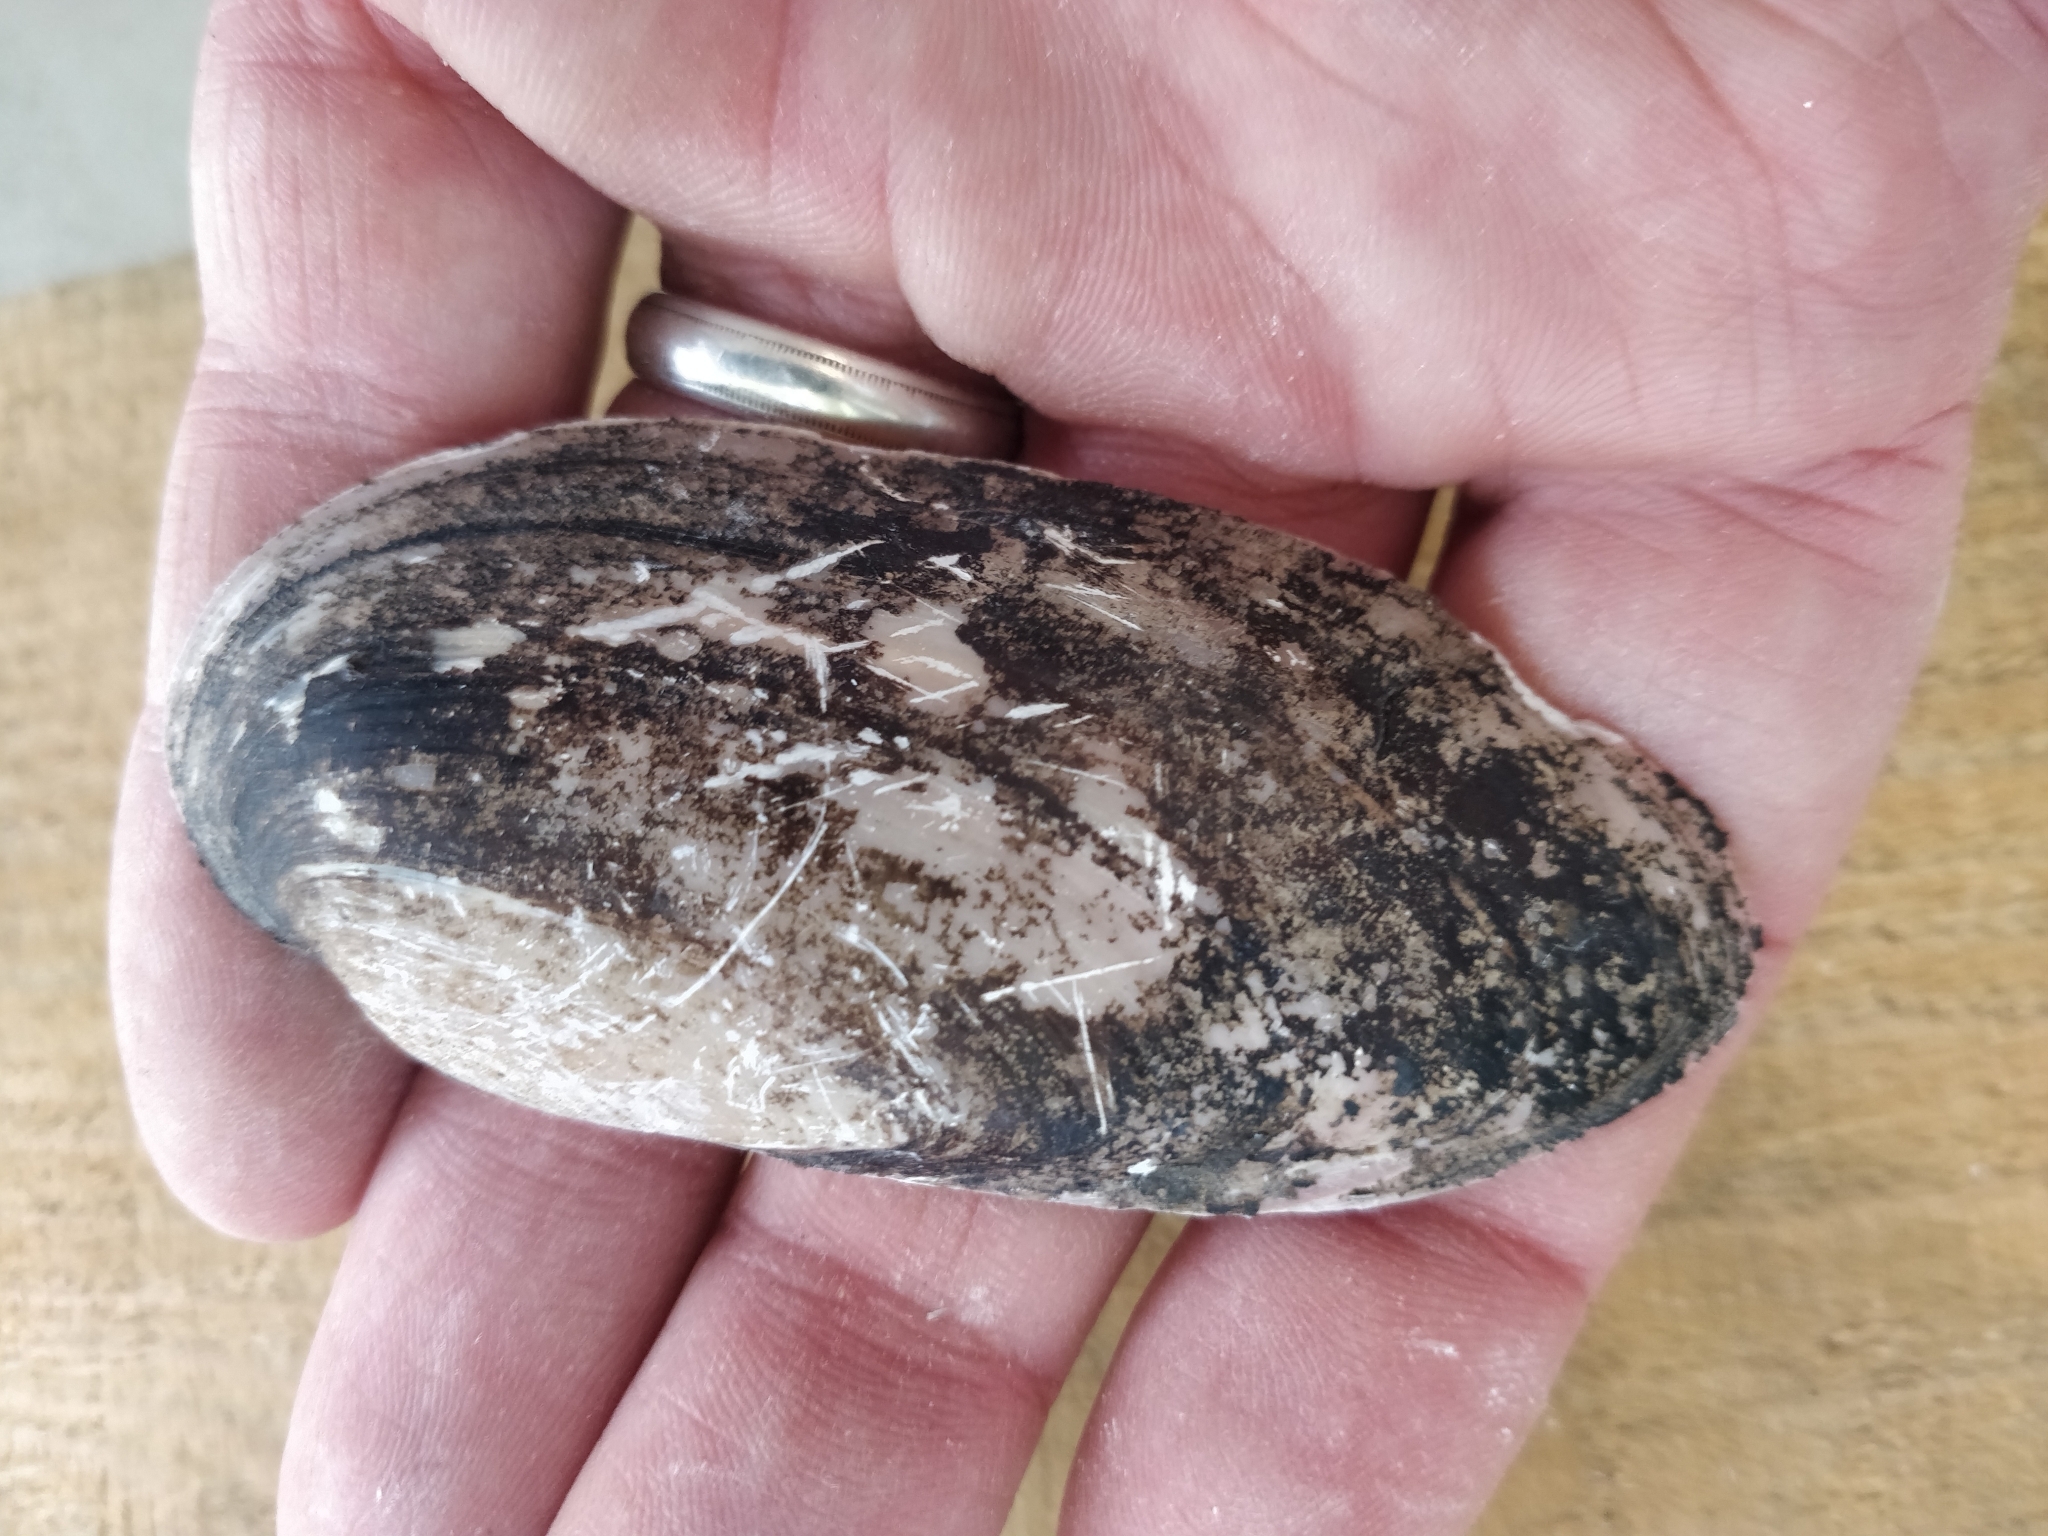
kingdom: Animalia
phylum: Mollusca
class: Bivalvia
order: Unionida
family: Unionidae
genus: Ligumia
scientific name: Ligumia recta
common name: Black sandshell
